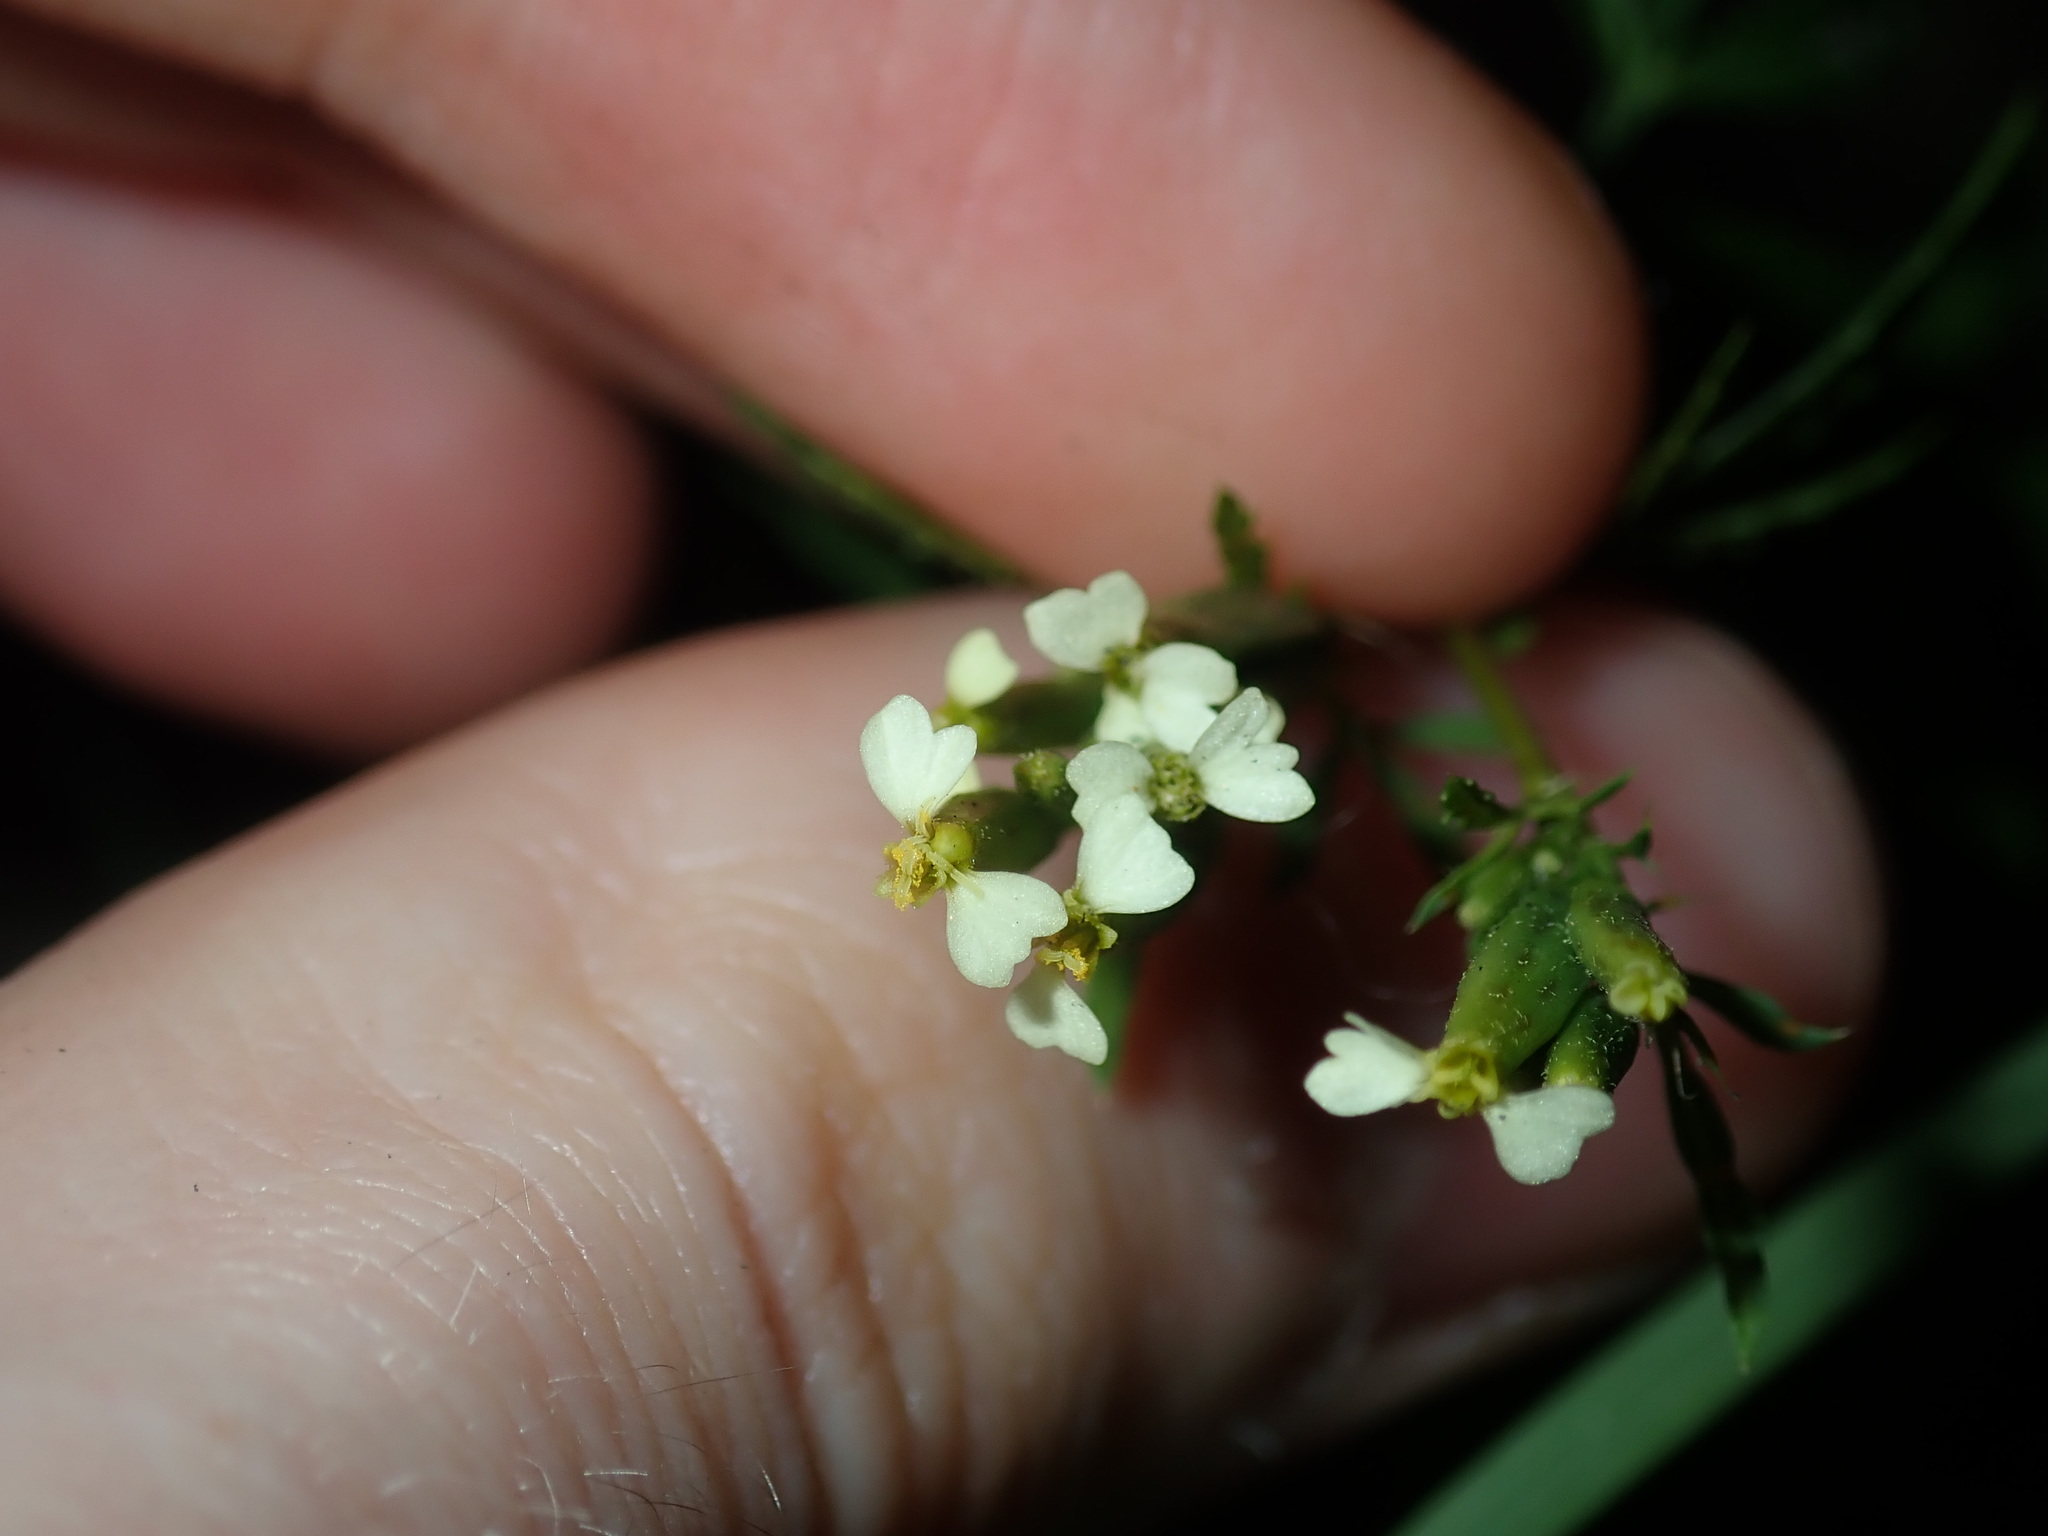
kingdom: Plantae
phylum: Tracheophyta
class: Magnoliopsida
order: Asterales
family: Asteraceae
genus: Tagetes
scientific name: Tagetes minuta
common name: Muster john henry
